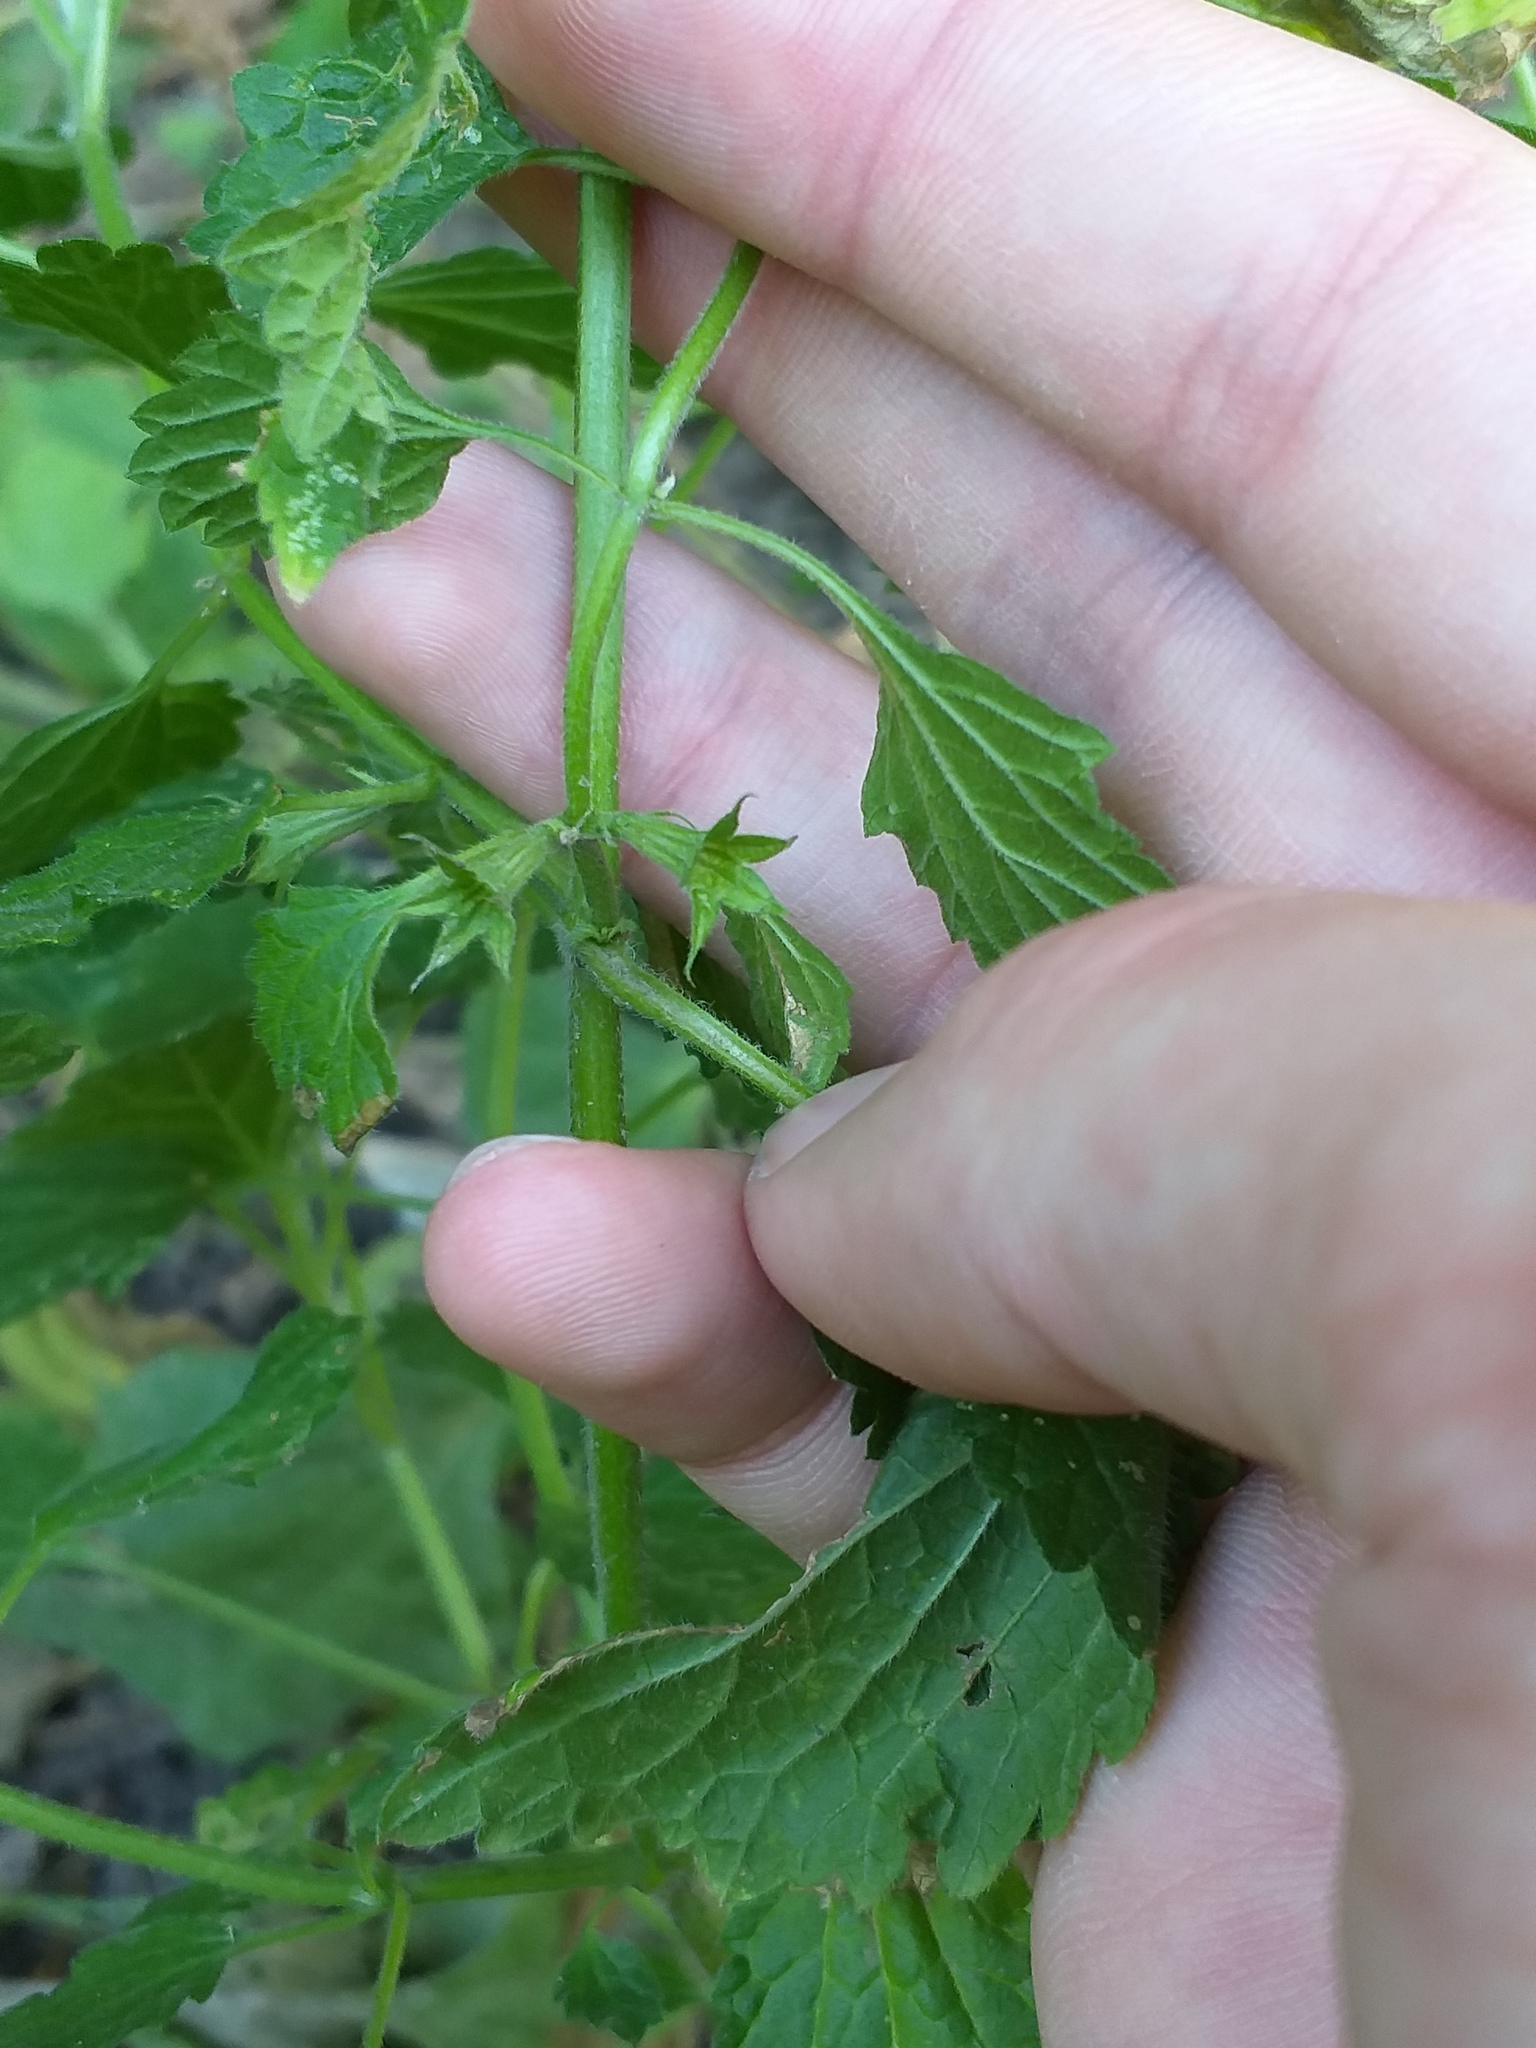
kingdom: Plantae
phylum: Tracheophyta
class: Magnoliopsida
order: Lamiales
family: Lamiaceae
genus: Ballota
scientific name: Ballota nigra
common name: Black horehound
